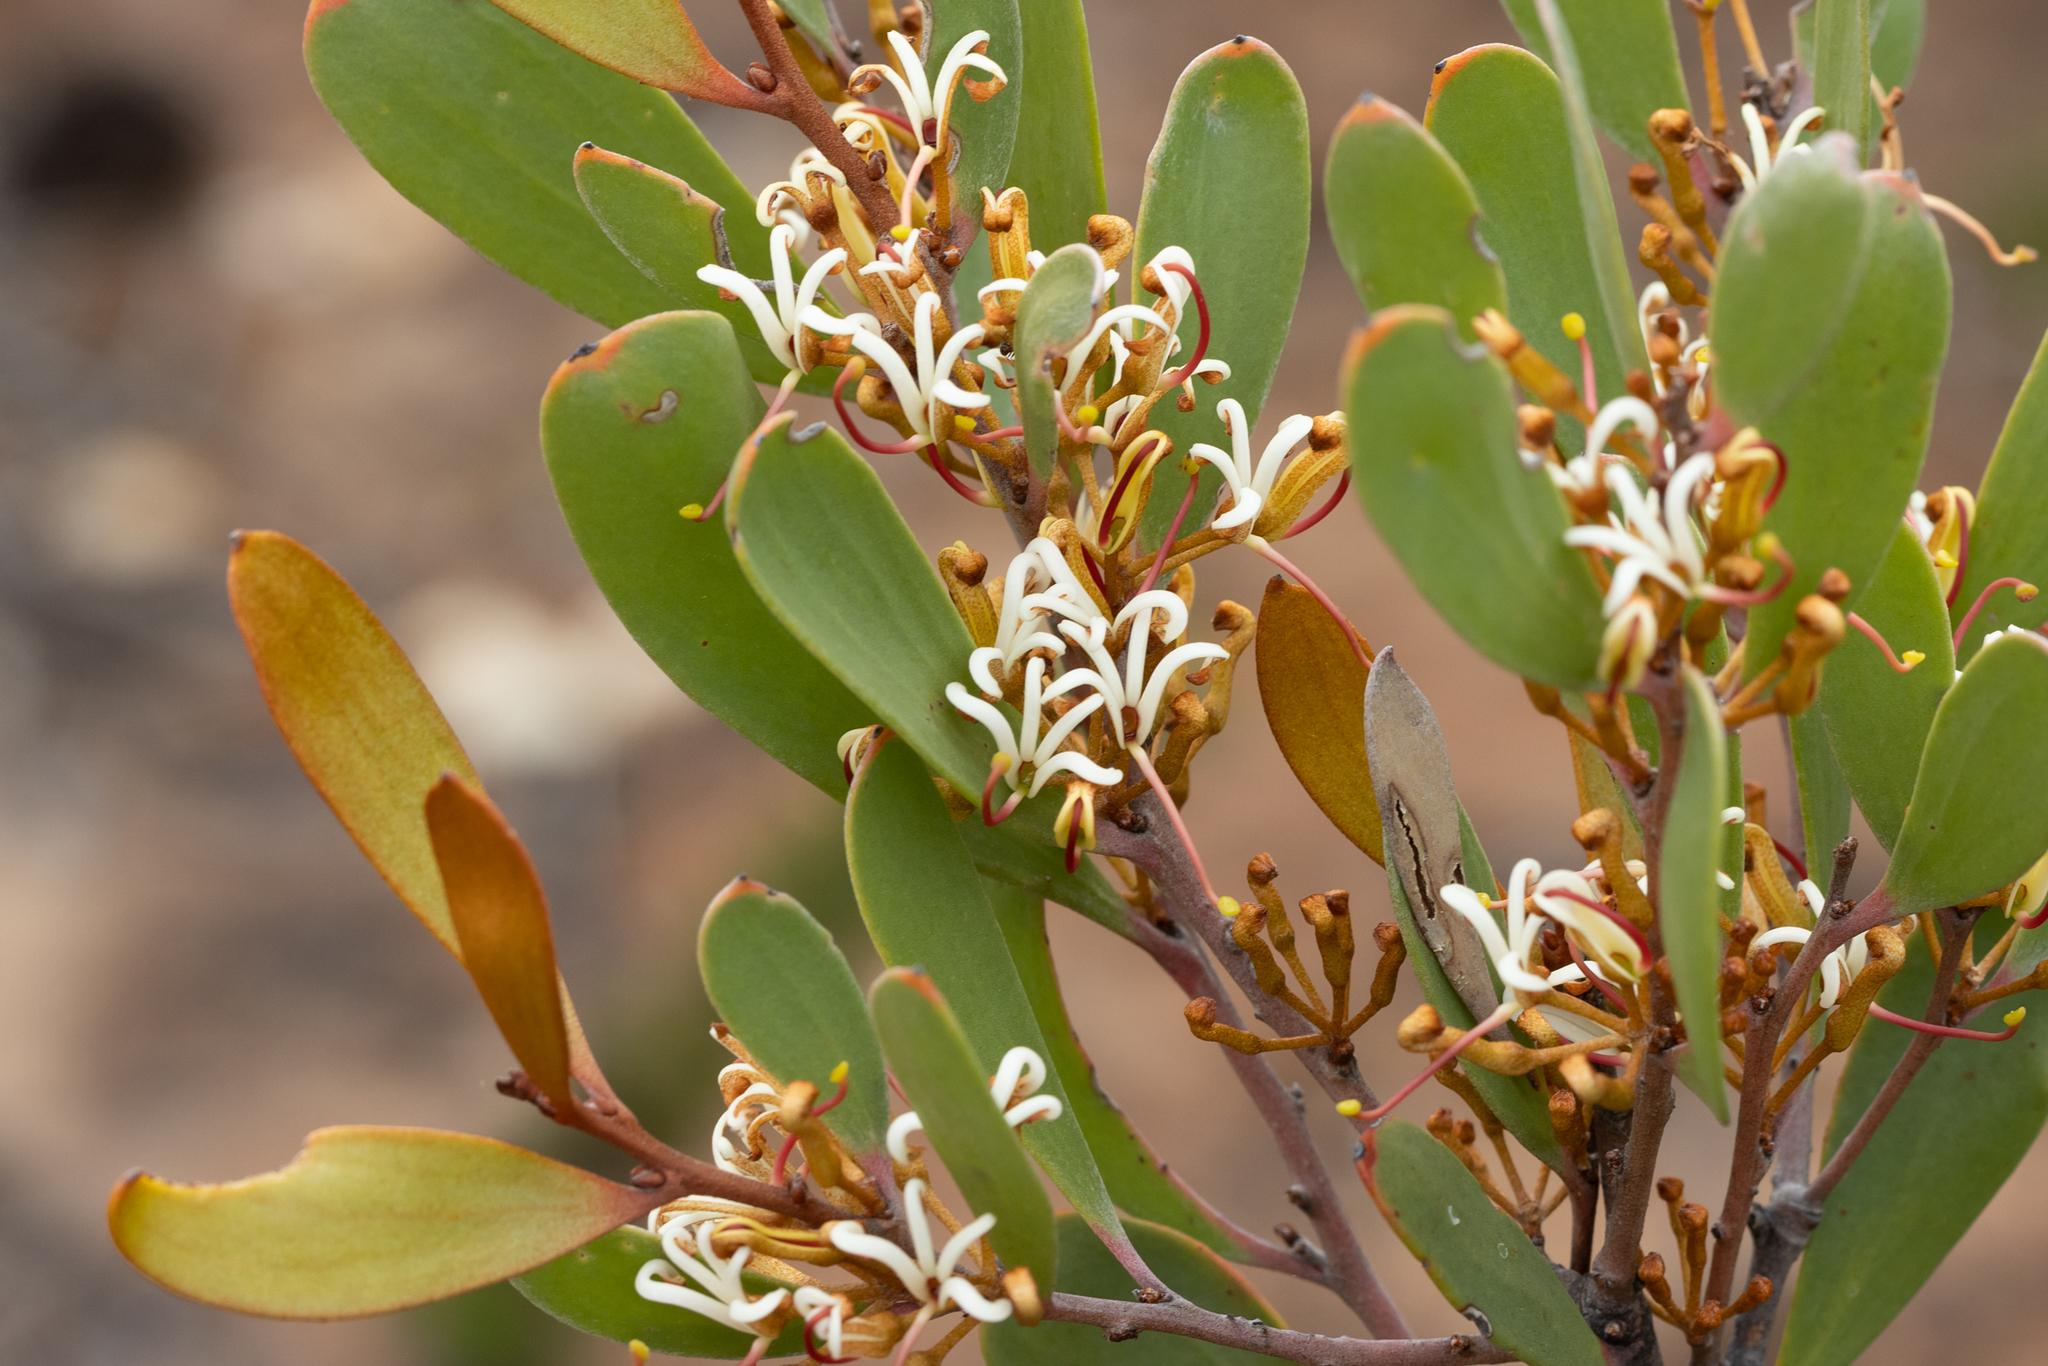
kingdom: Plantae
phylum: Tracheophyta
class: Magnoliopsida
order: Proteales
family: Proteaceae
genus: Hakea
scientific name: Hakea pandanicarpa
